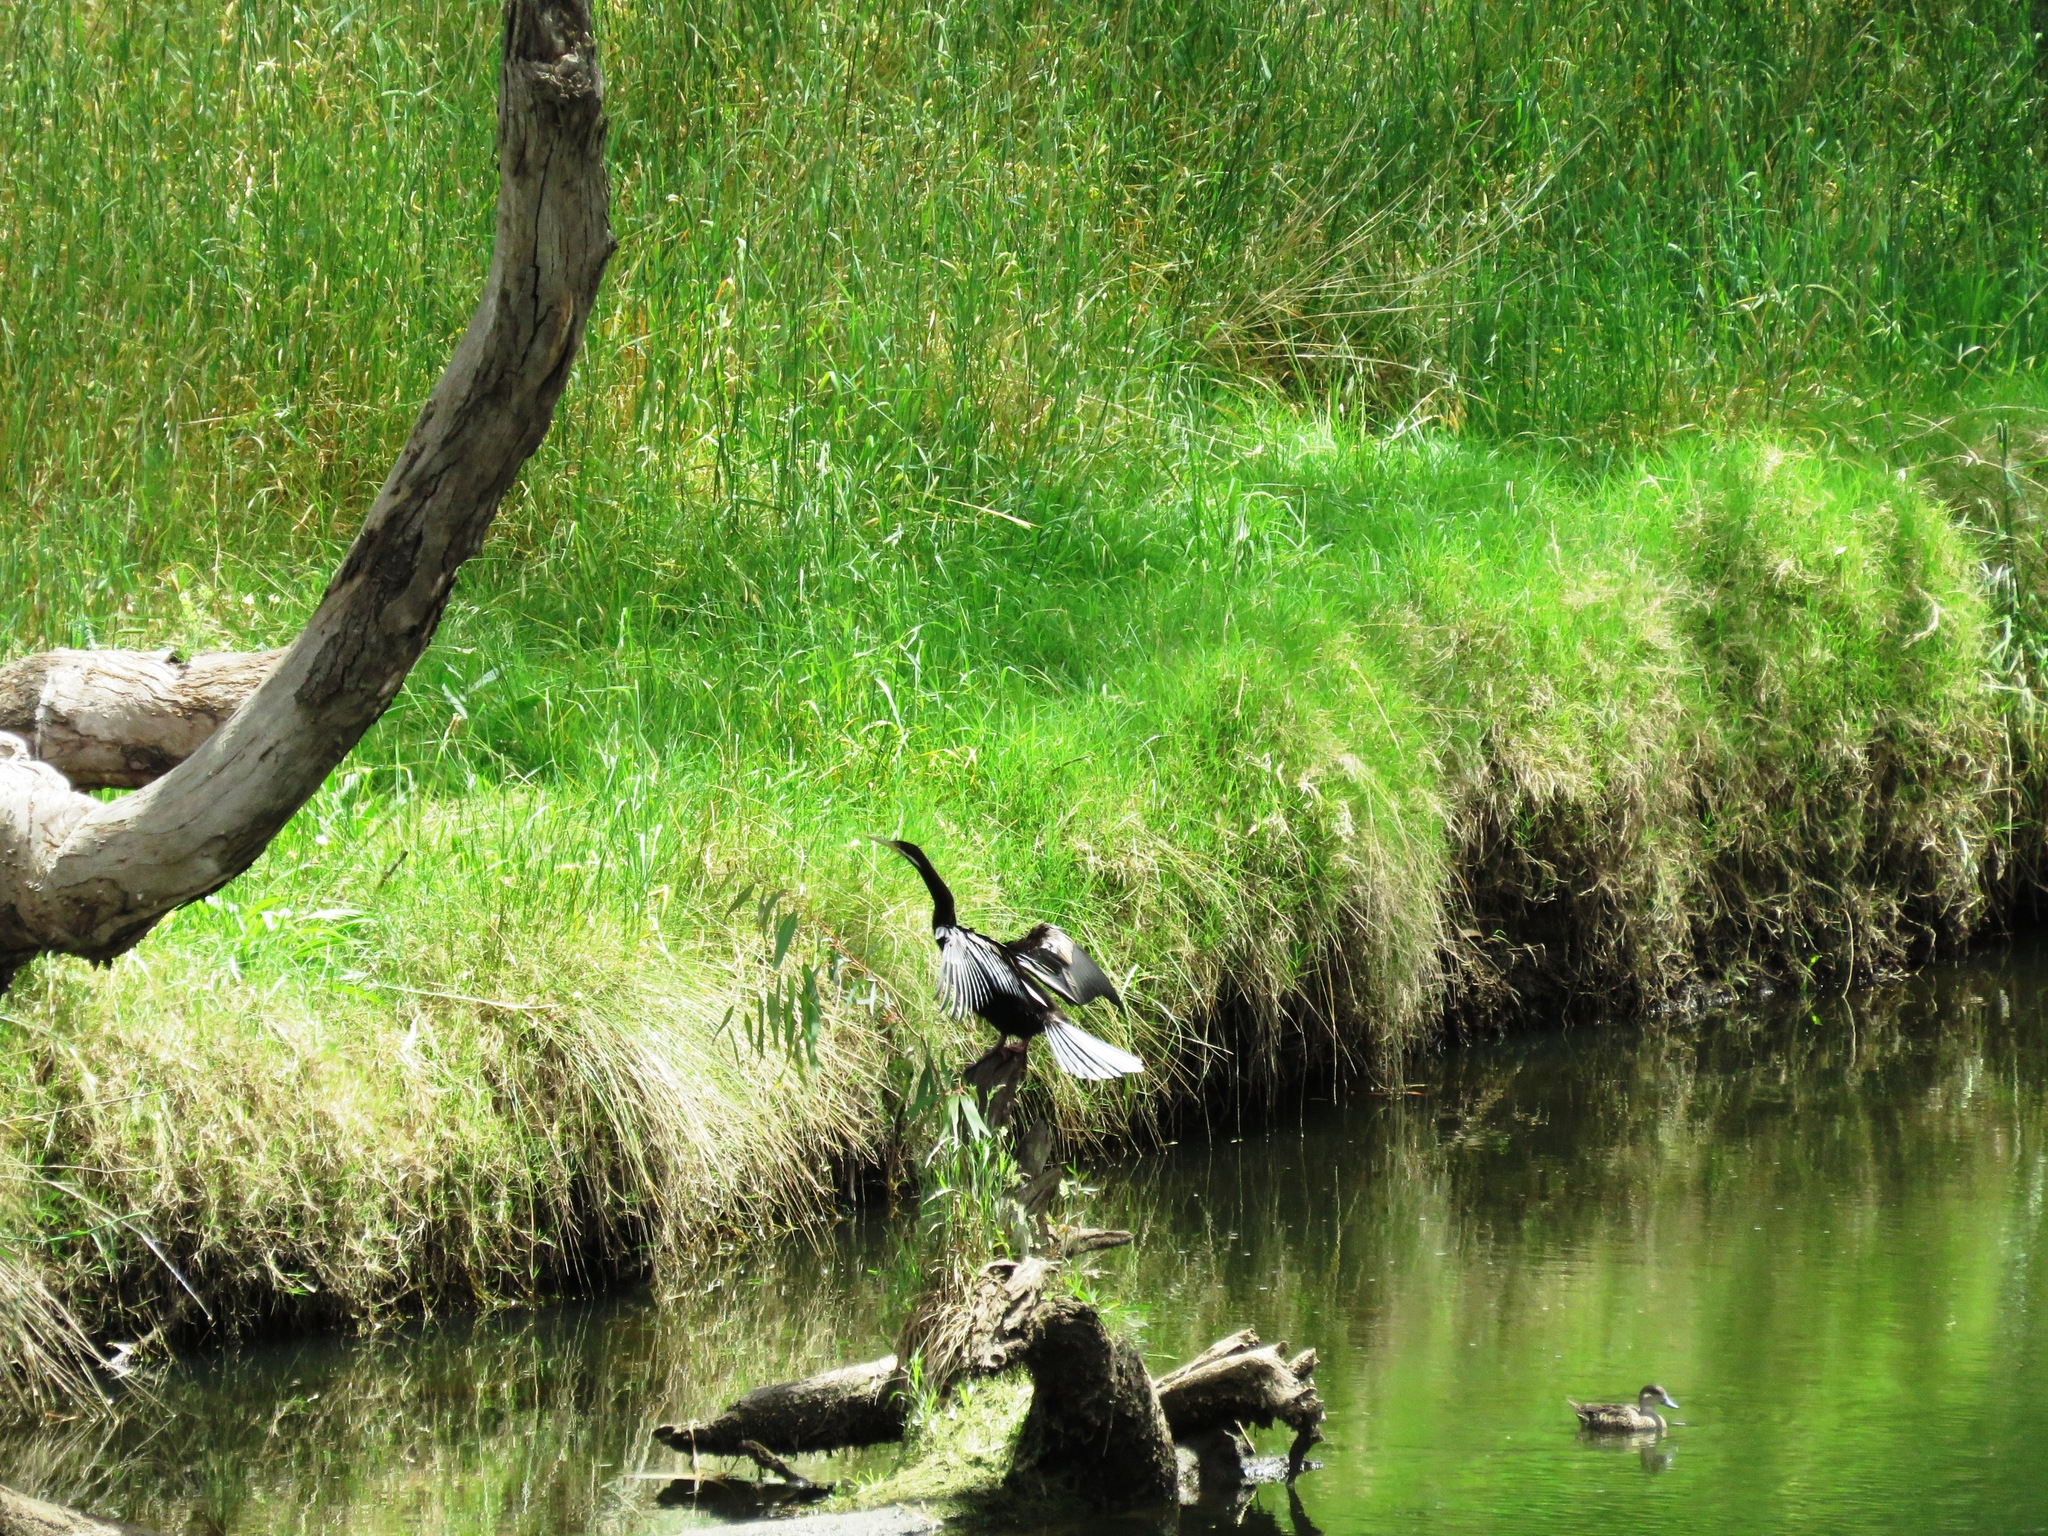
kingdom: Animalia
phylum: Chordata
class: Aves
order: Suliformes
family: Anhingidae
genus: Anhinga
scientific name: Anhinga novaehollandiae
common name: Australasian darter
